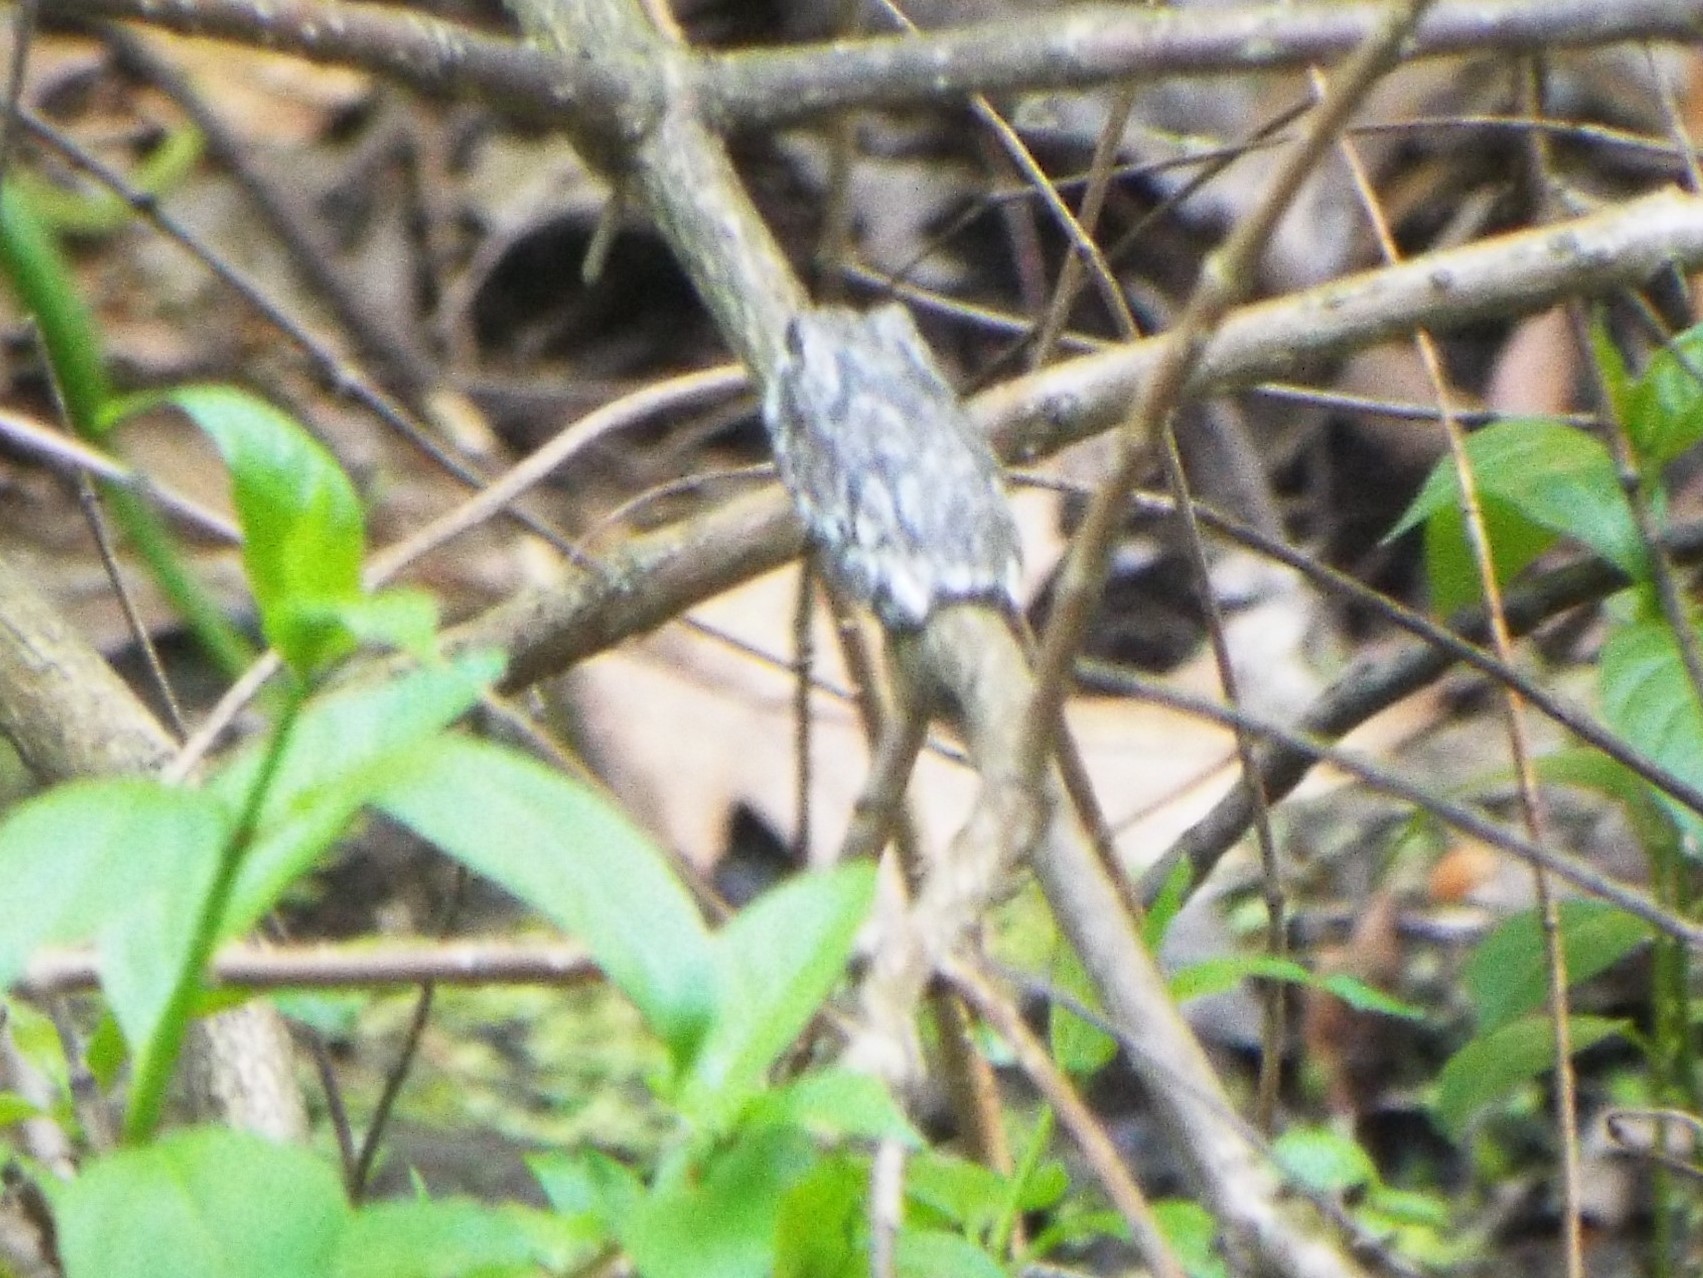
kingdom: Animalia
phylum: Chordata
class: Amphibia
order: Anura
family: Hylidae
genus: Dryophytes
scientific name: Dryophytes versicolor
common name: Gray treefrog
